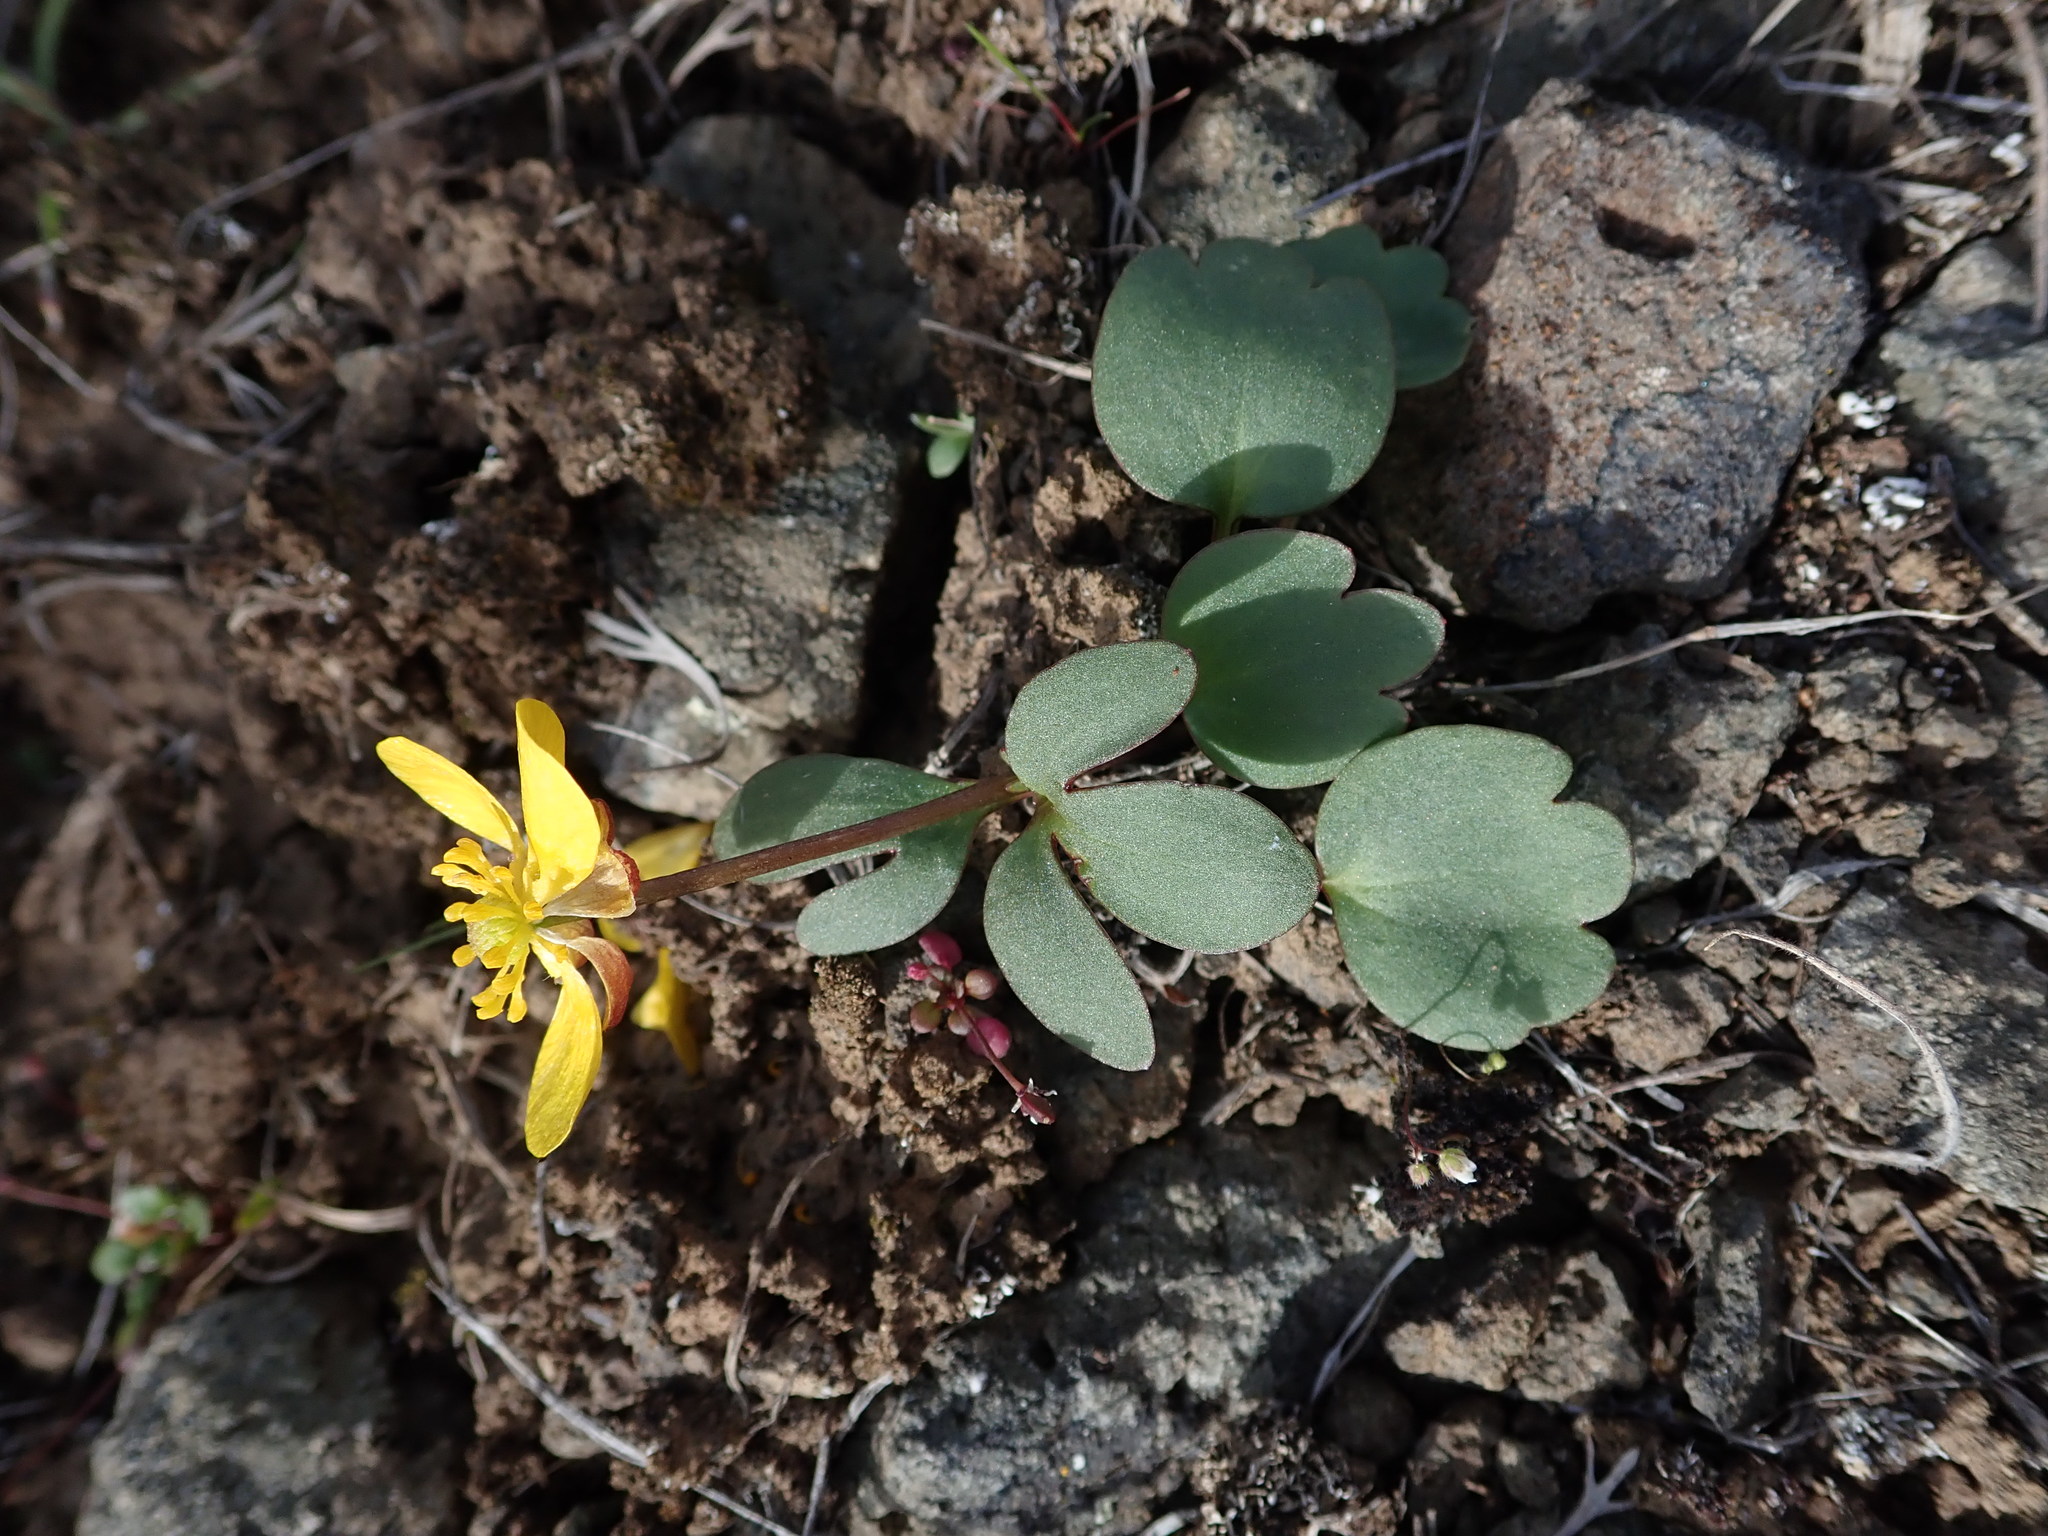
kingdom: Plantae
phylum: Tracheophyta
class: Magnoliopsida
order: Ranunculales
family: Ranunculaceae
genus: Ranunculus
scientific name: Ranunculus glaberrimus
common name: Sagebrush buttercup
